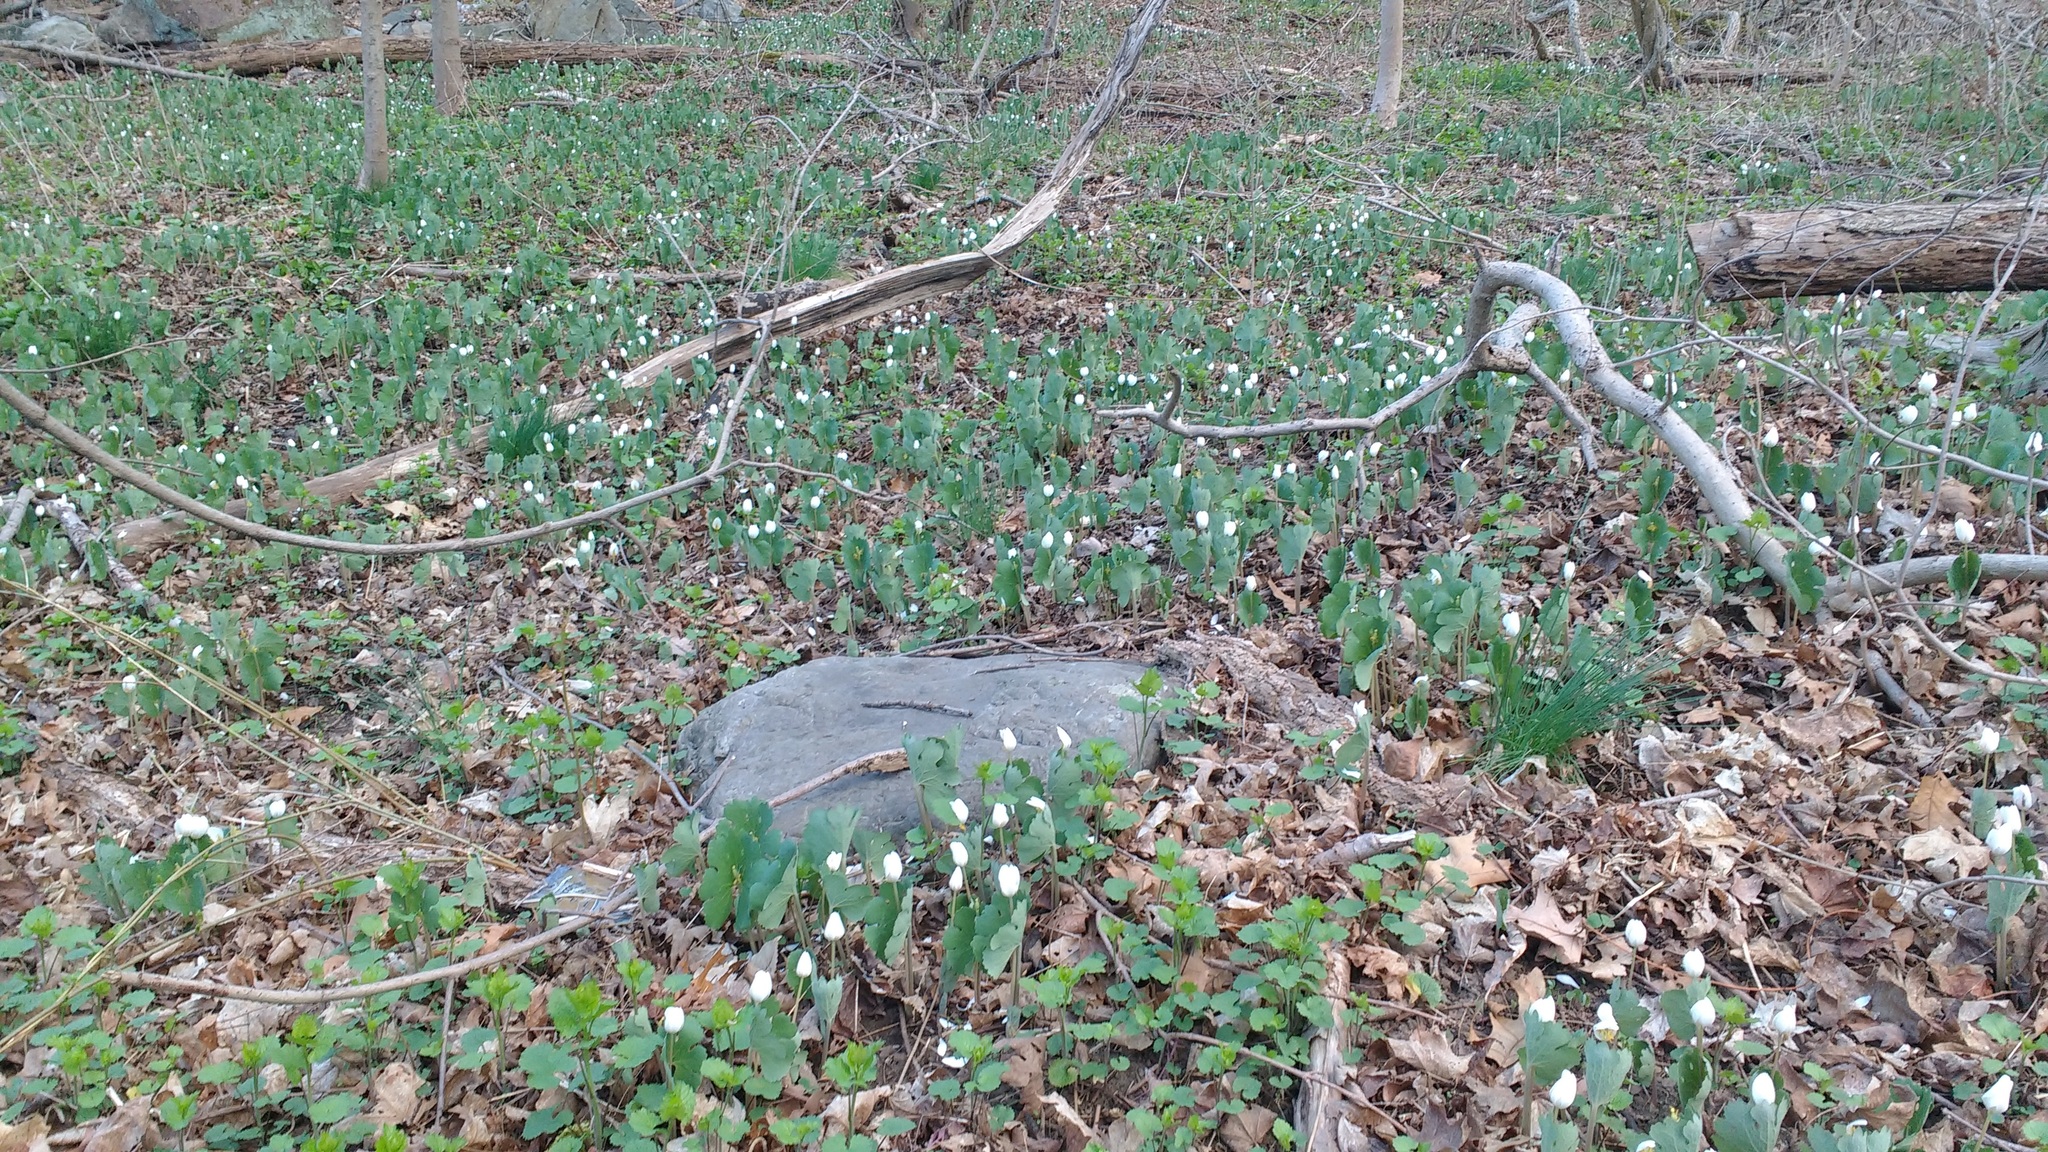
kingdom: Plantae
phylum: Tracheophyta
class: Magnoliopsida
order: Ranunculales
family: Papaveraceae
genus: Sanguinaria
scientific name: Sanguinaria canadensis
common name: Bloodroot
